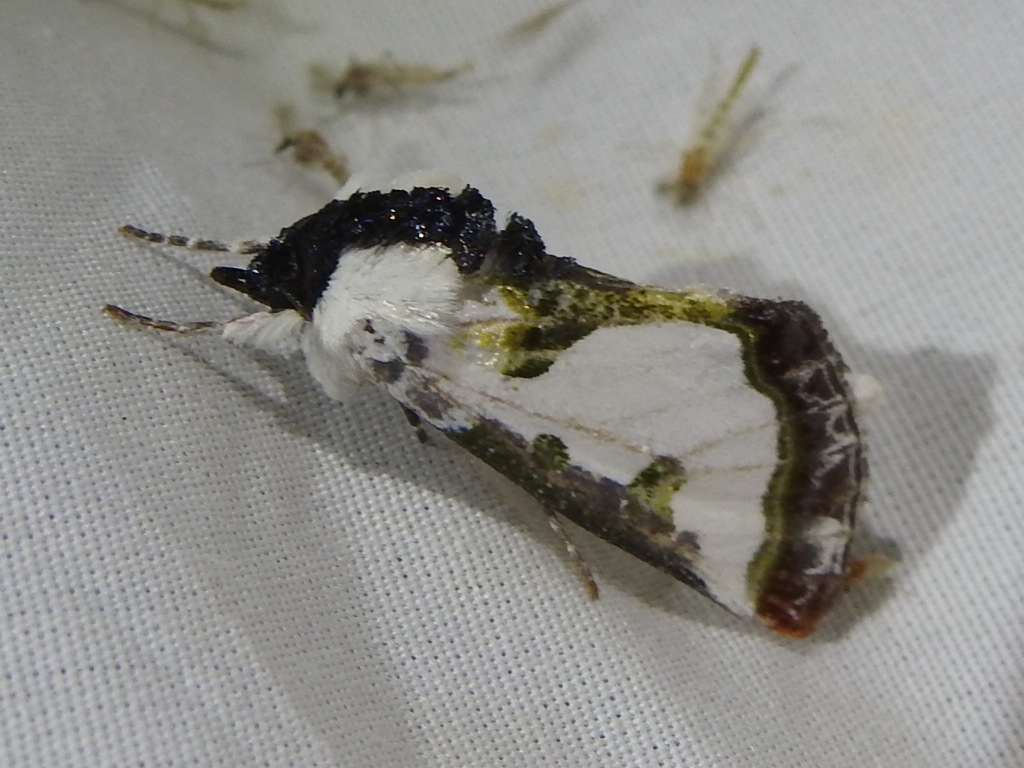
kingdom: Animalia
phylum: Arthropoda
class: Insecta
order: Lepidoptera
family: Noctuidae
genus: Xerociris
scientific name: Xerociris wilsonii
